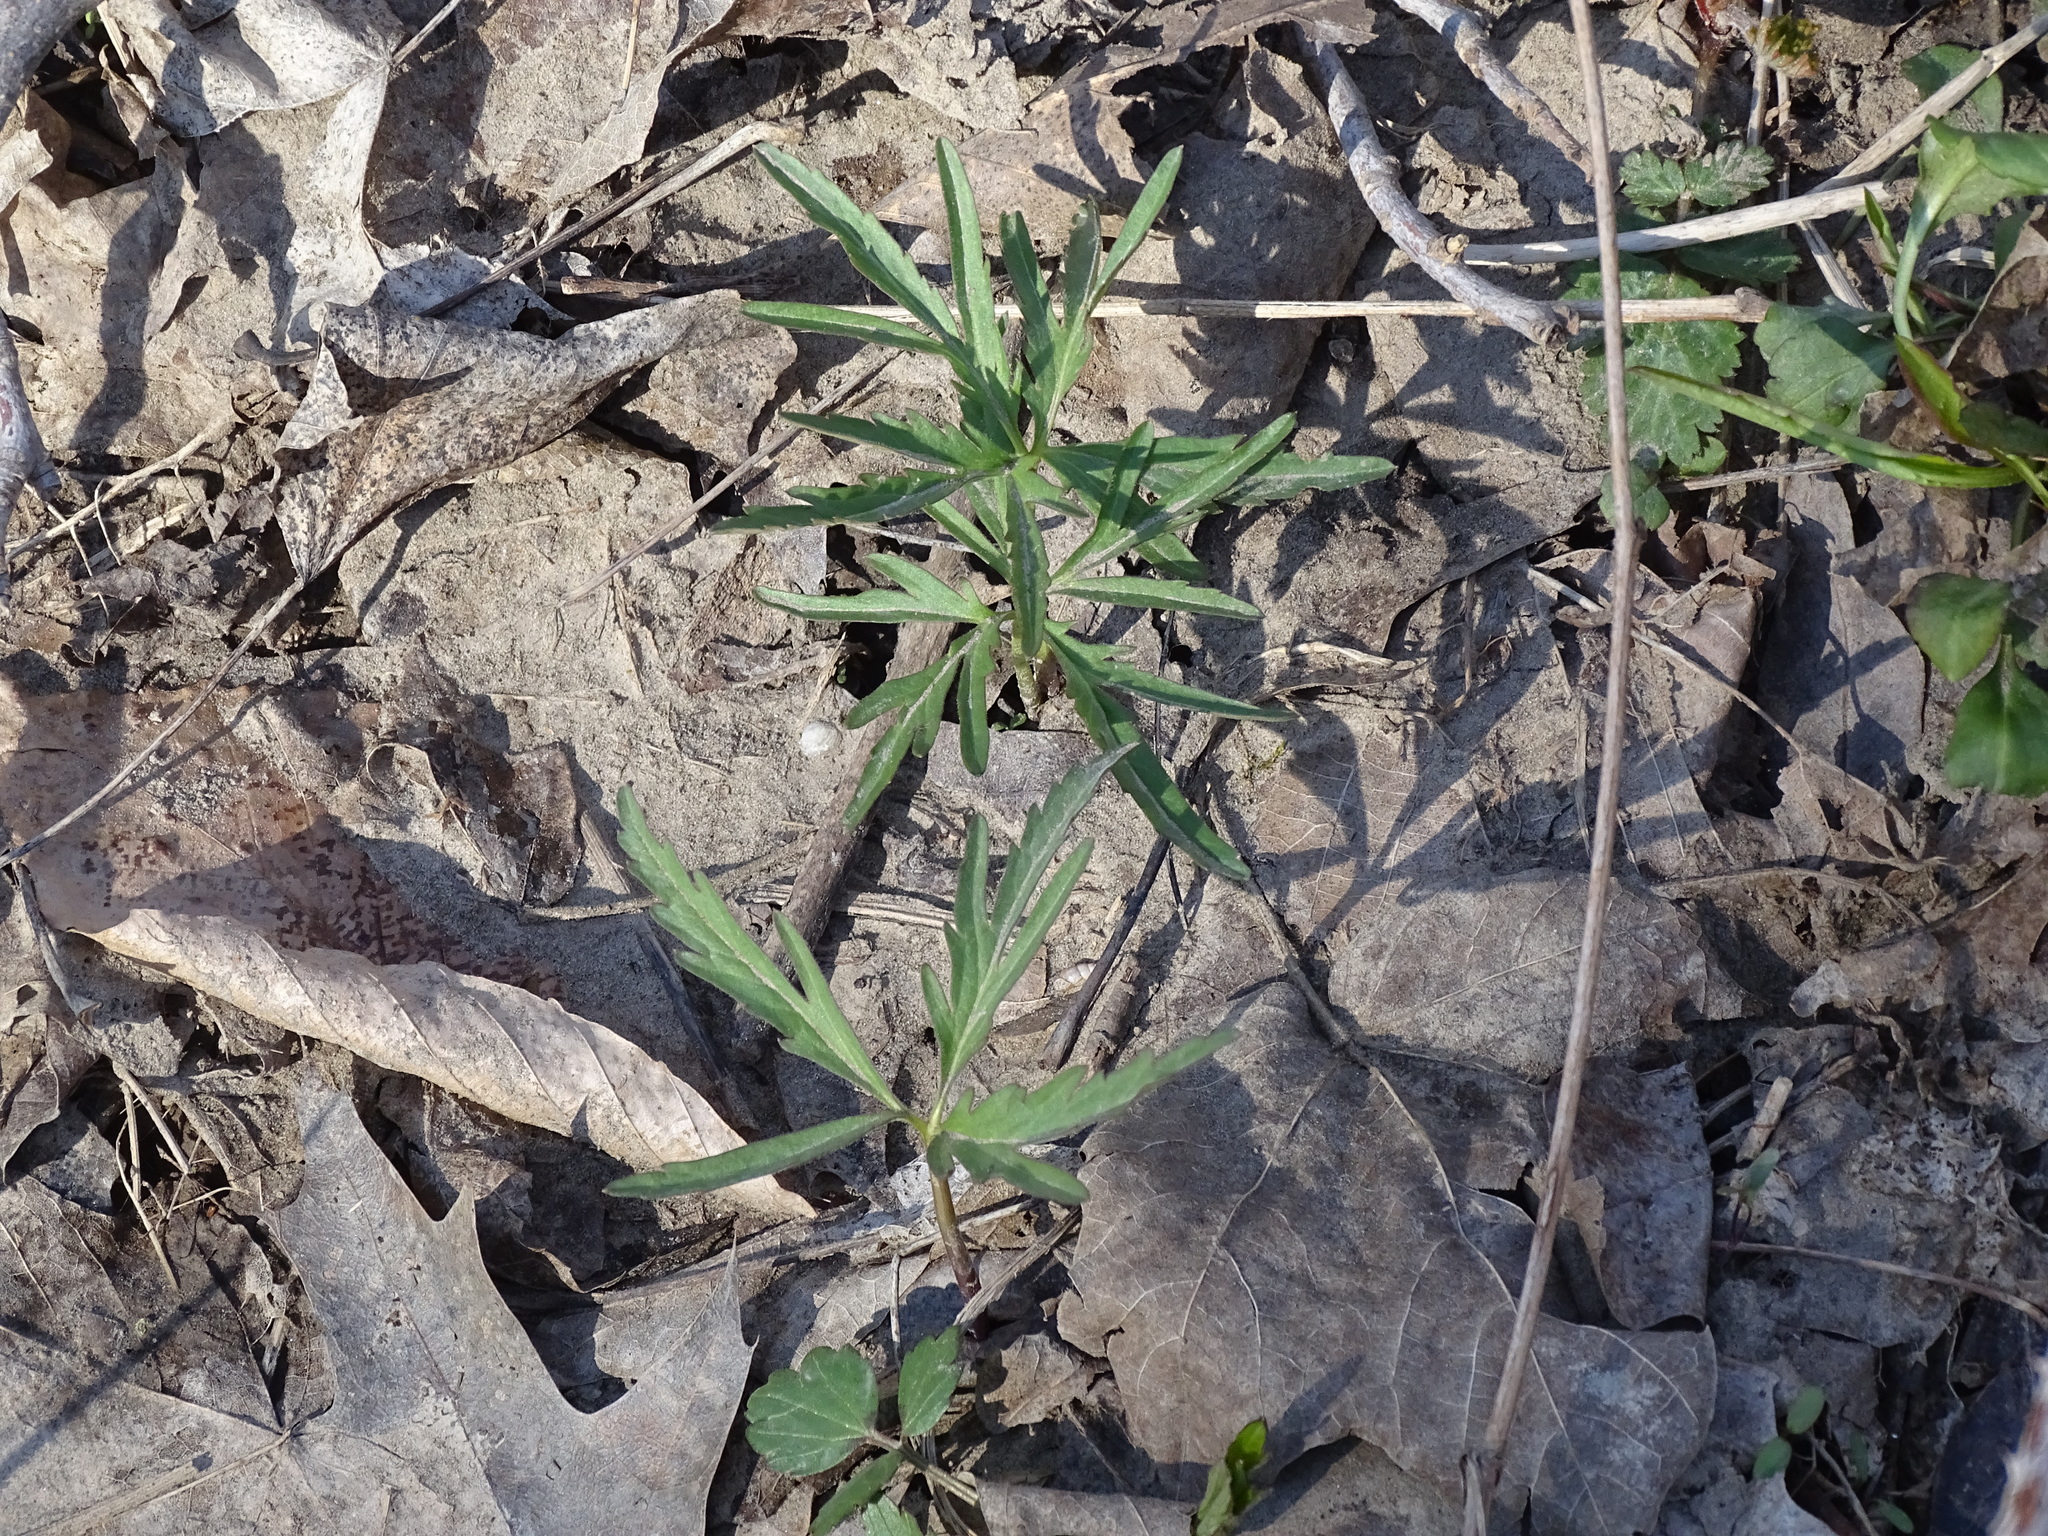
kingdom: Plantae
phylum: Tracheophyta
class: Magnoliopsida
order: Brassicales
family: Brassicaceae
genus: Cardamine
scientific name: Cardamine concatenata
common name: Cut-leaf toothcup
